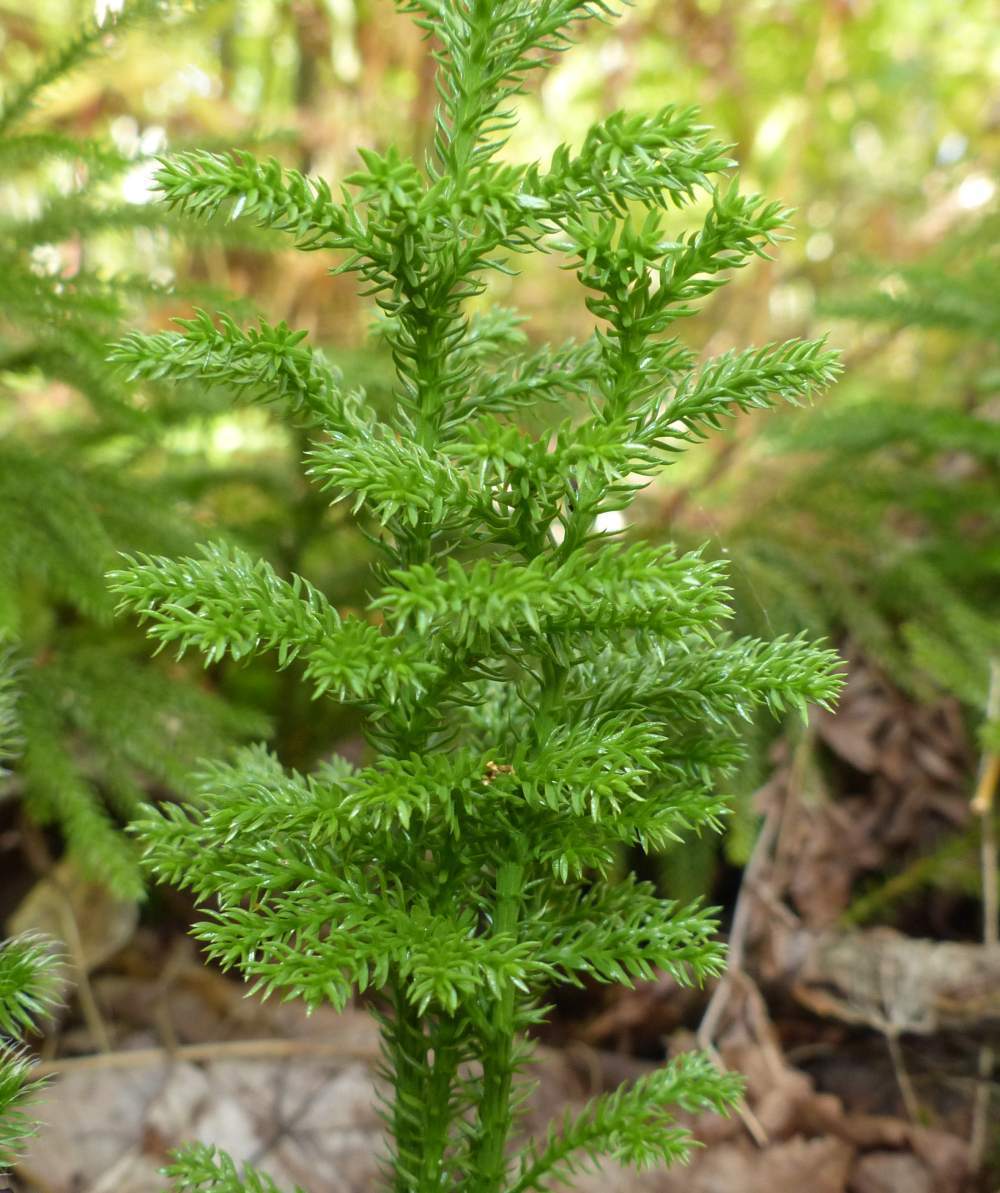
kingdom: Plantae
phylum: Tracheophyta
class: Lycopodiopsida
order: Lycopodiales
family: Lycopodiaceae
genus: Dendrolycopodium
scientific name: Dendrolycopodium dendroideum
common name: Northern tree-clubmoss
